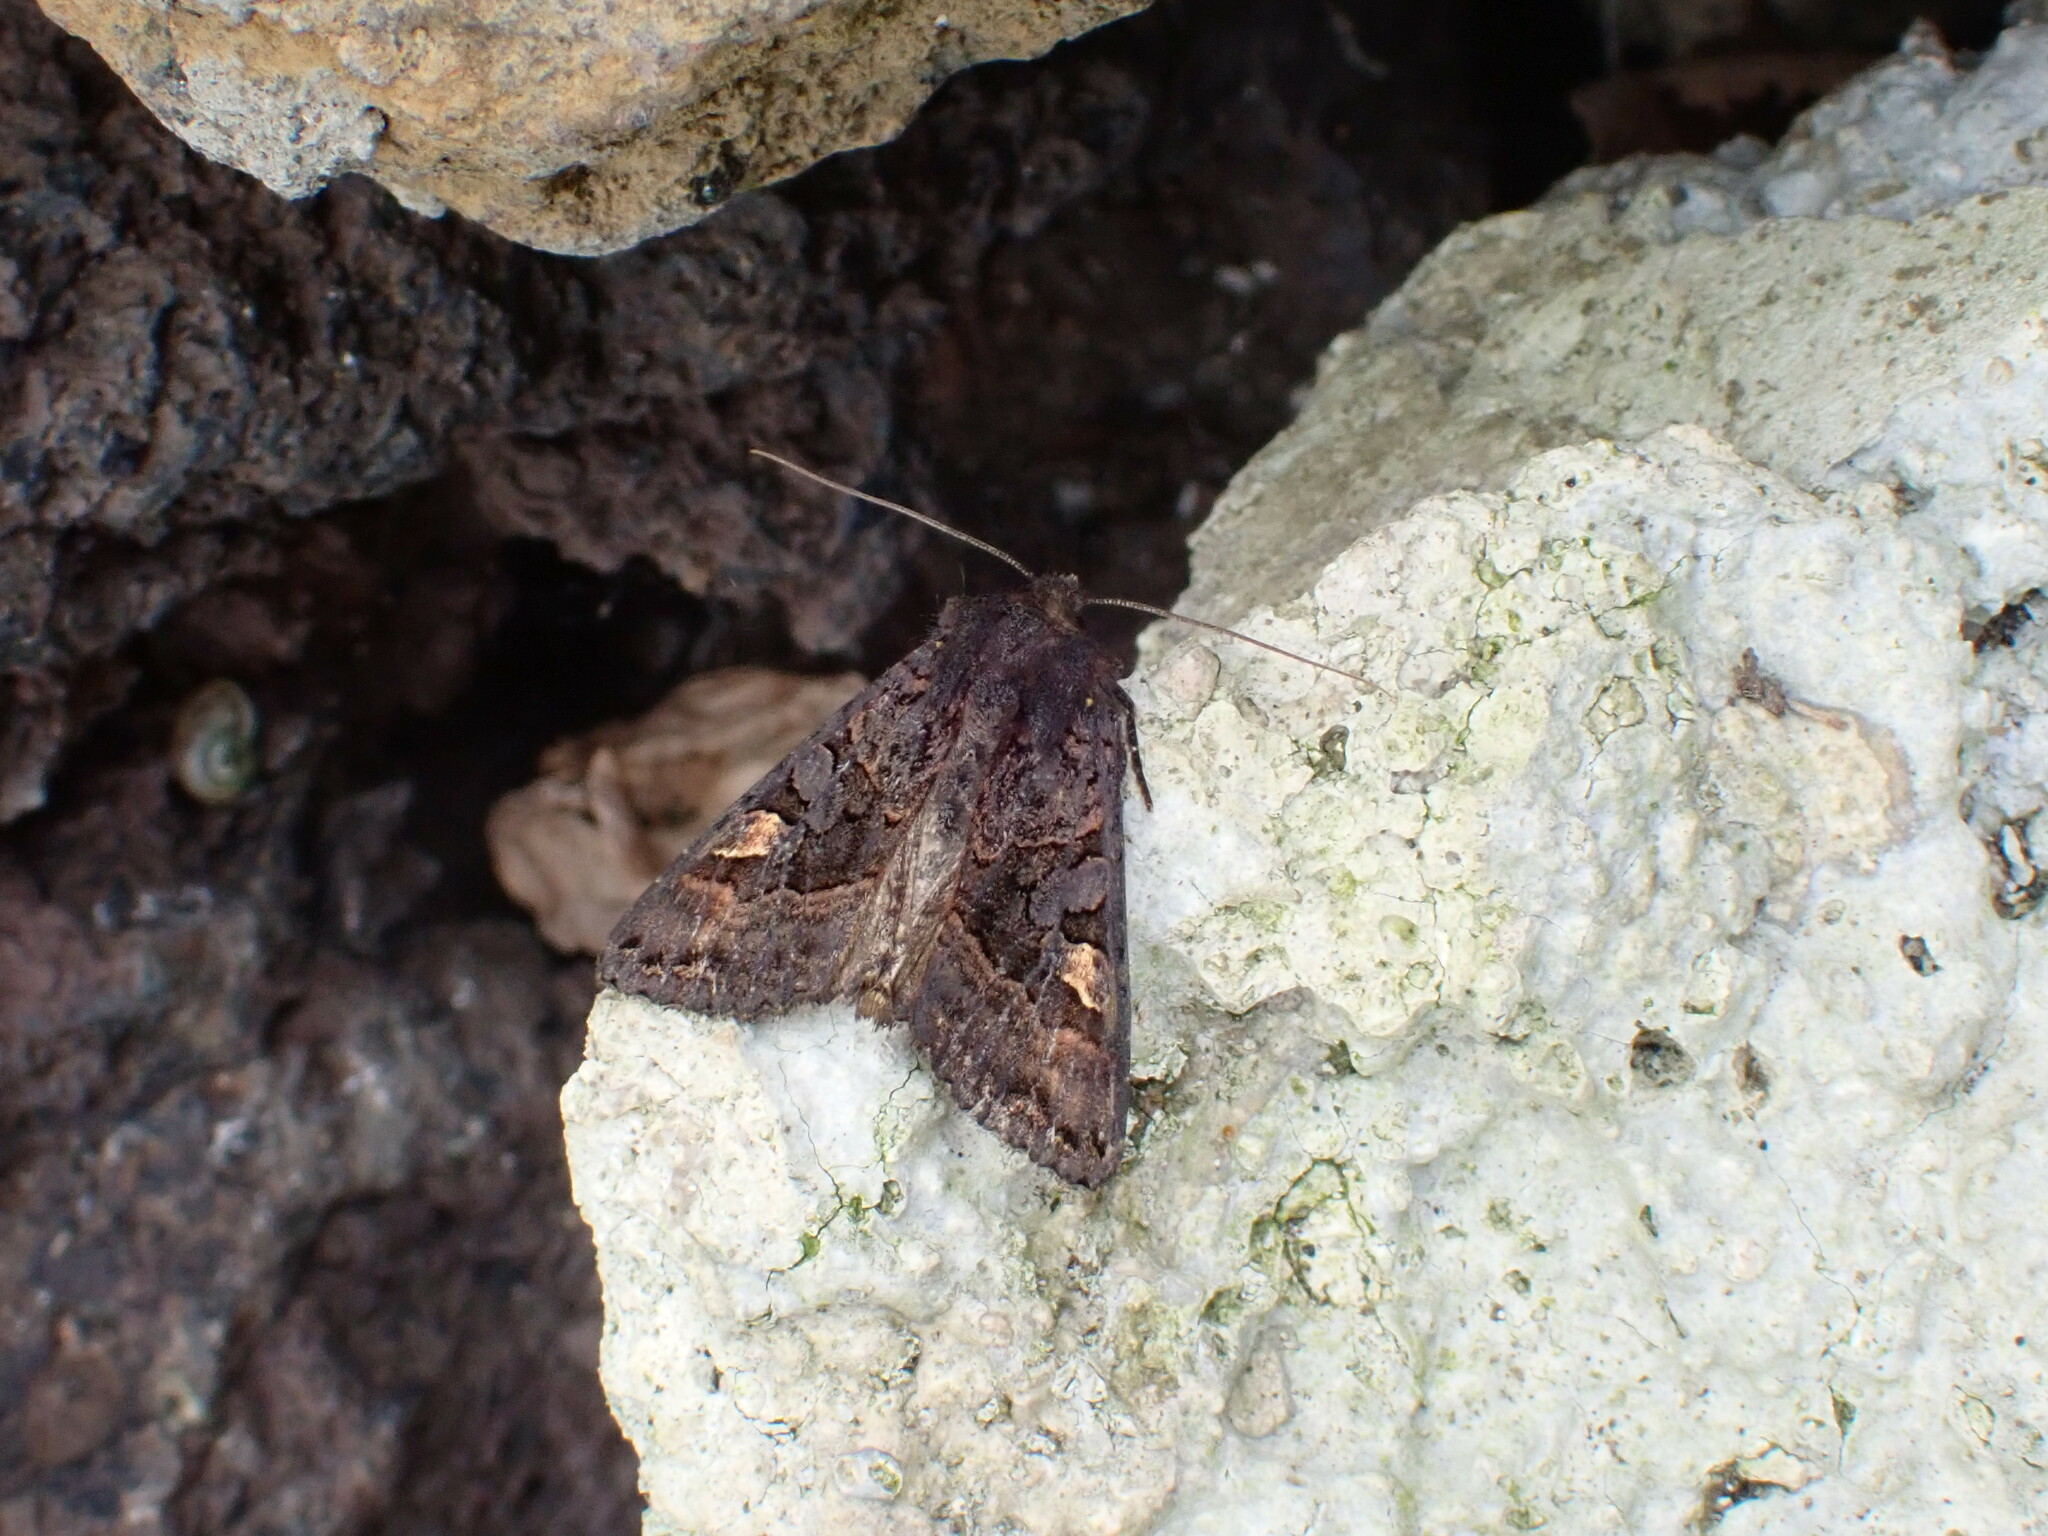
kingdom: Animalia
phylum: Arthropoda
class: Insecta
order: Lepidoptera
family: Noctuidae
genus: Euplexia
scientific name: Euplexia euplexina
